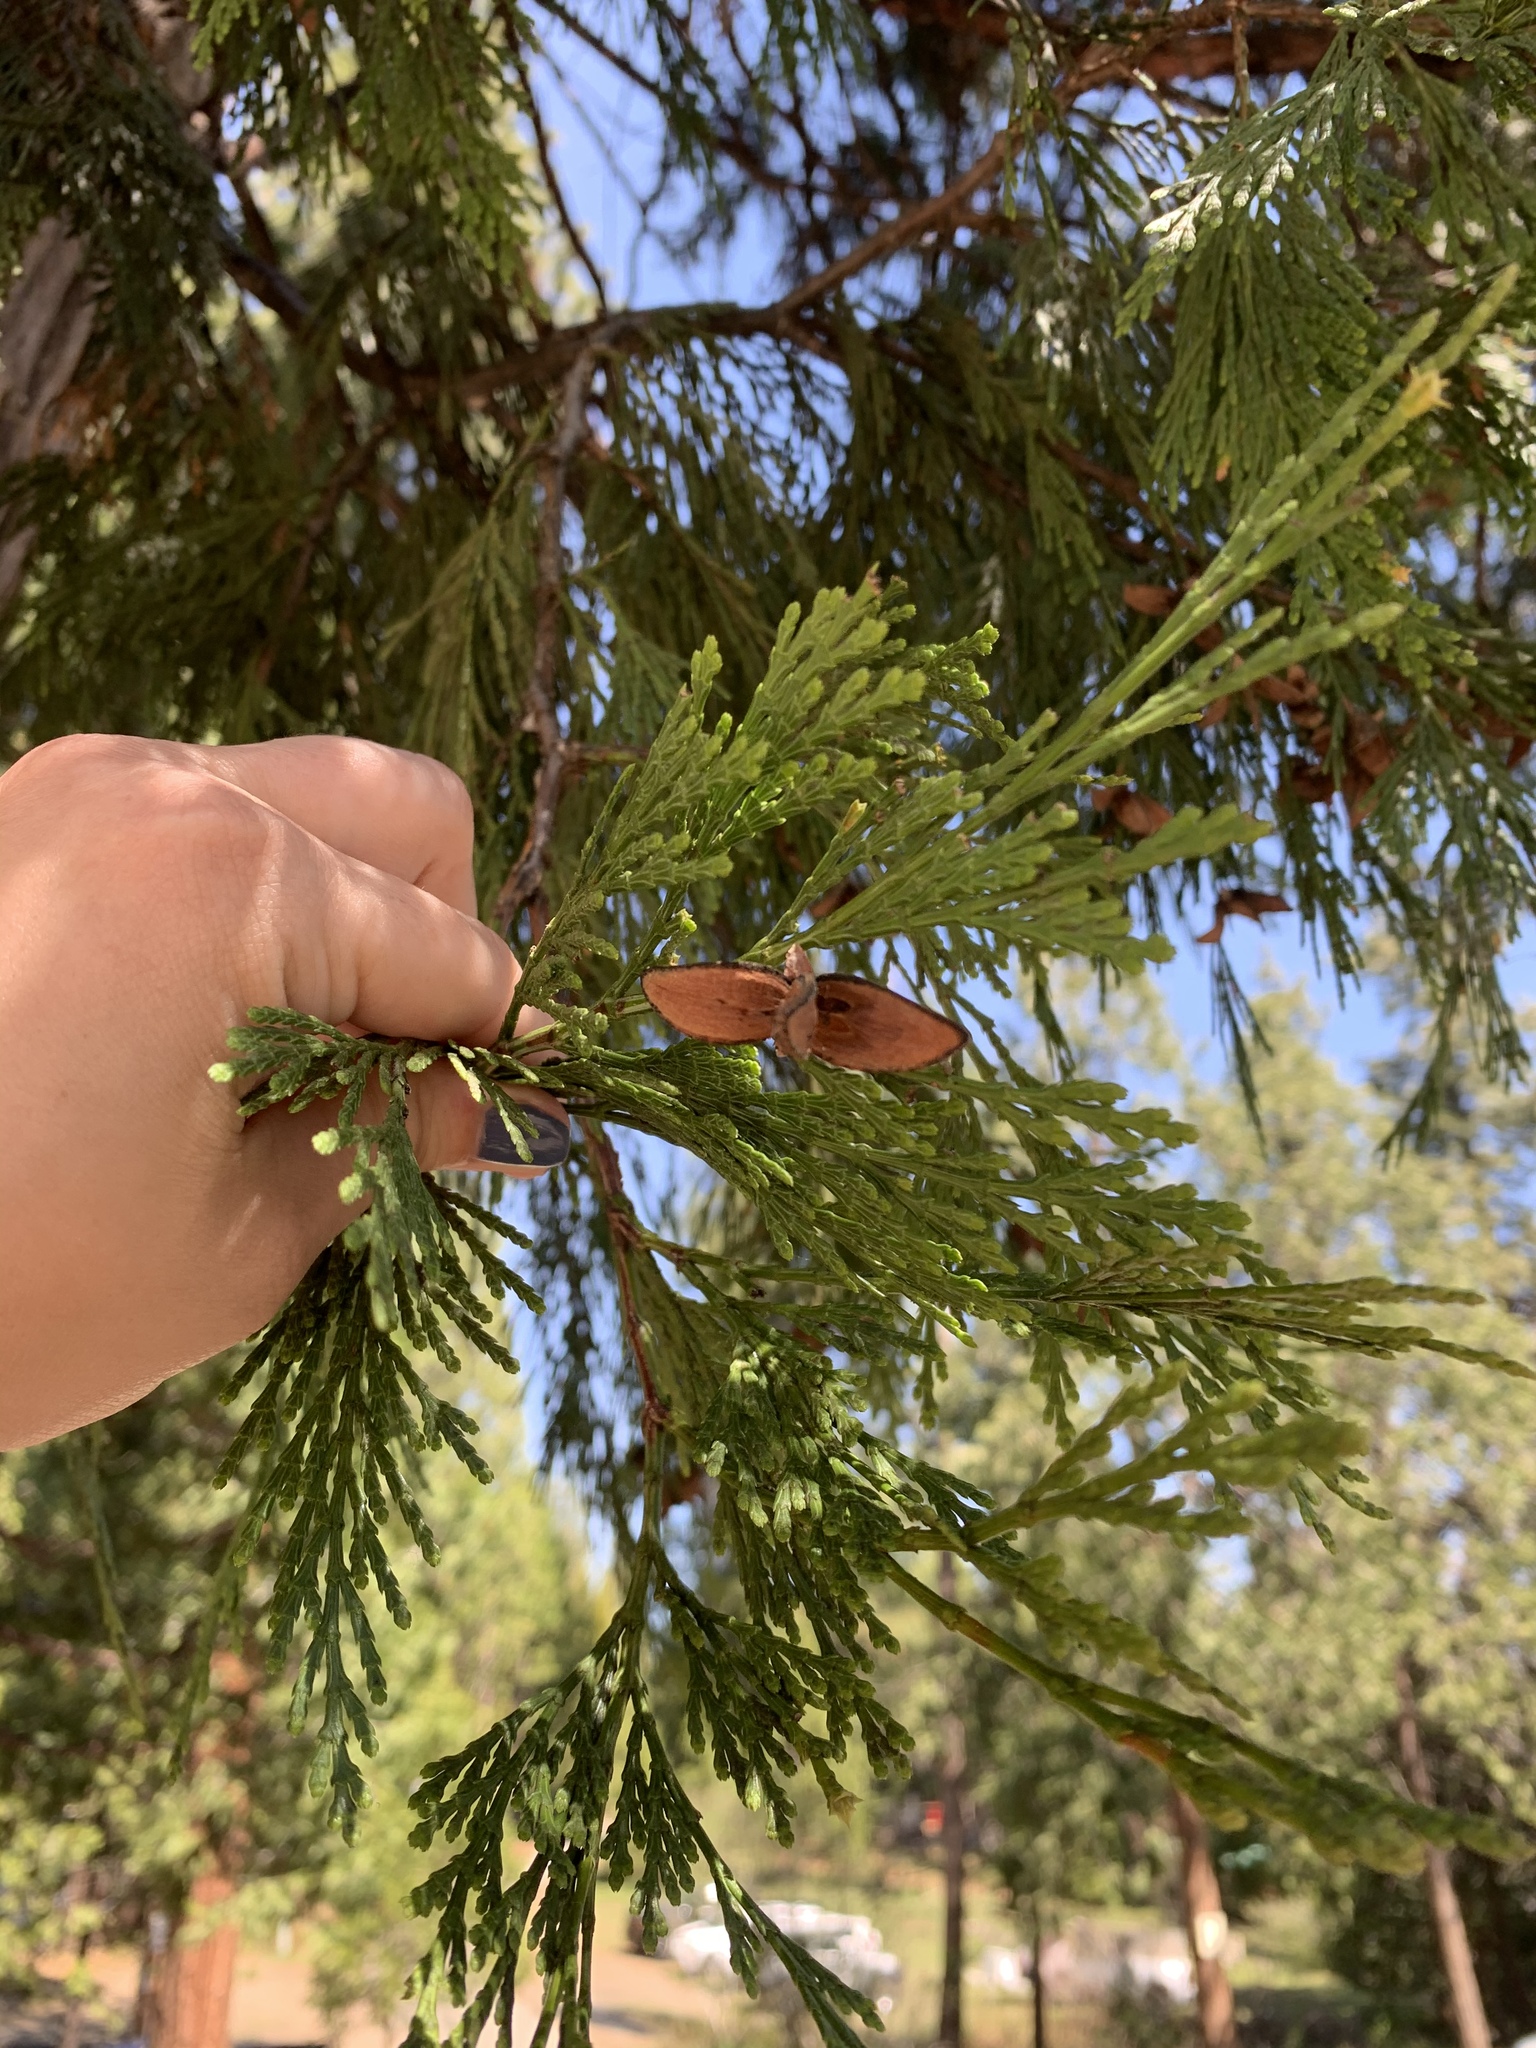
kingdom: Plantae
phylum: Tracheophyta
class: Pinopsida
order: Pinales
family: Cupressaceae
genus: Calocedrus
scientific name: Calocedrus decurrens
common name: Californian incense-cedar
